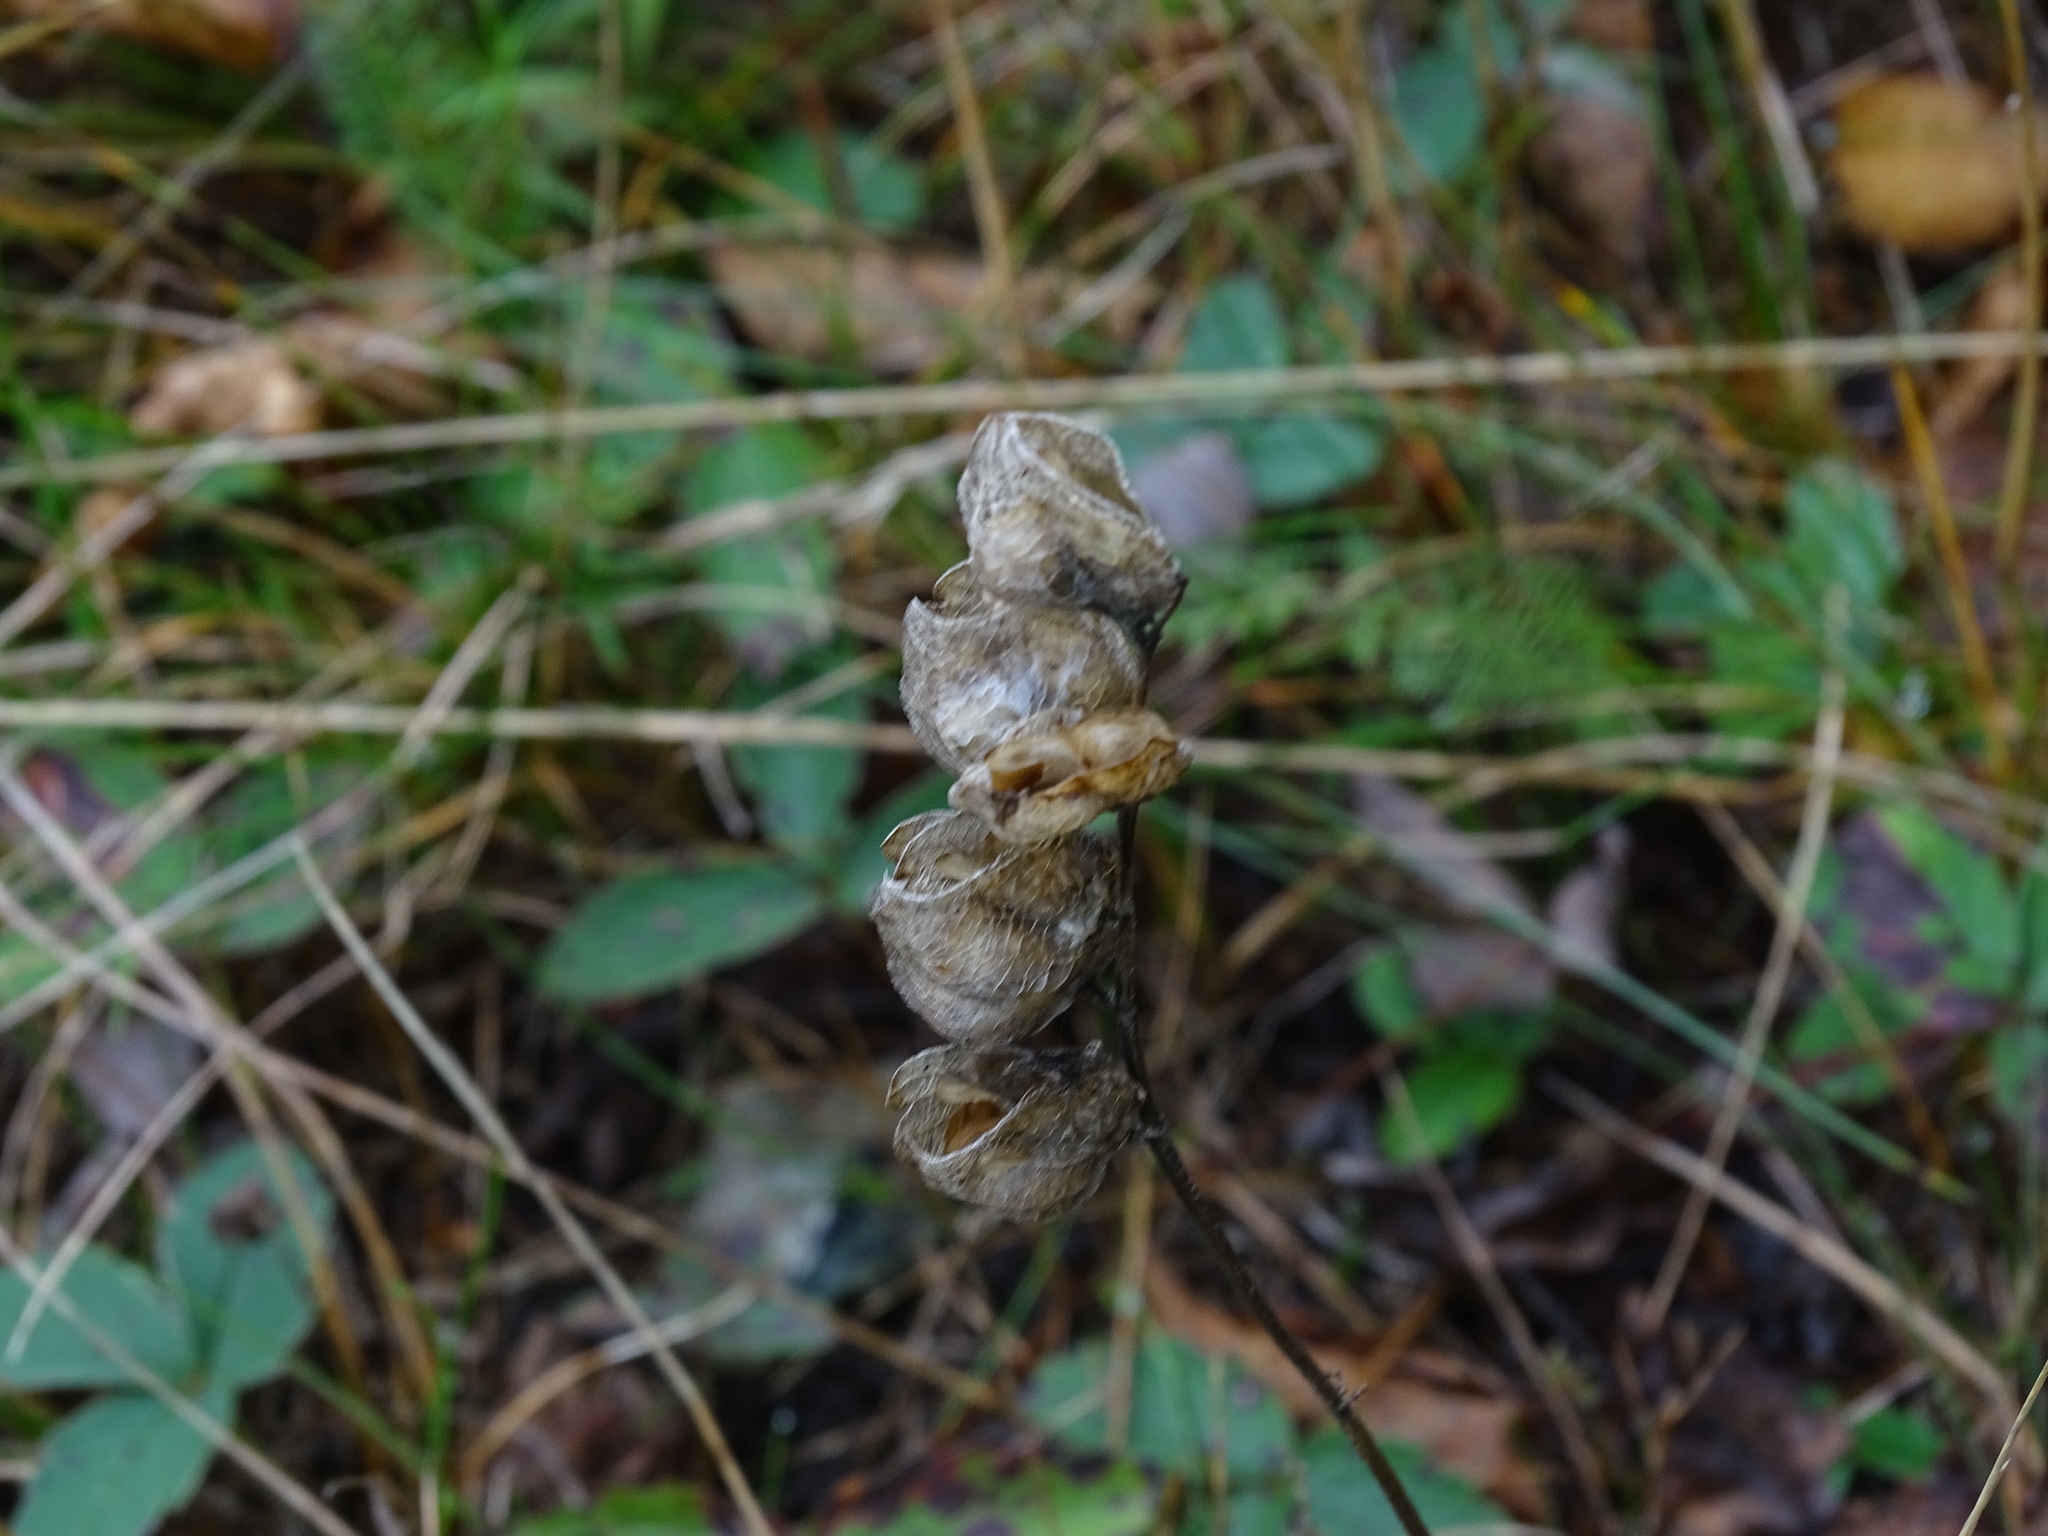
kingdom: Plantae
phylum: Tracheophyta
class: Magnoliopsida
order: Lamiales
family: Orobanchaceae
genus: Rhinanthus
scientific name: Rhinanthus minor
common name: Yellow-rattle
